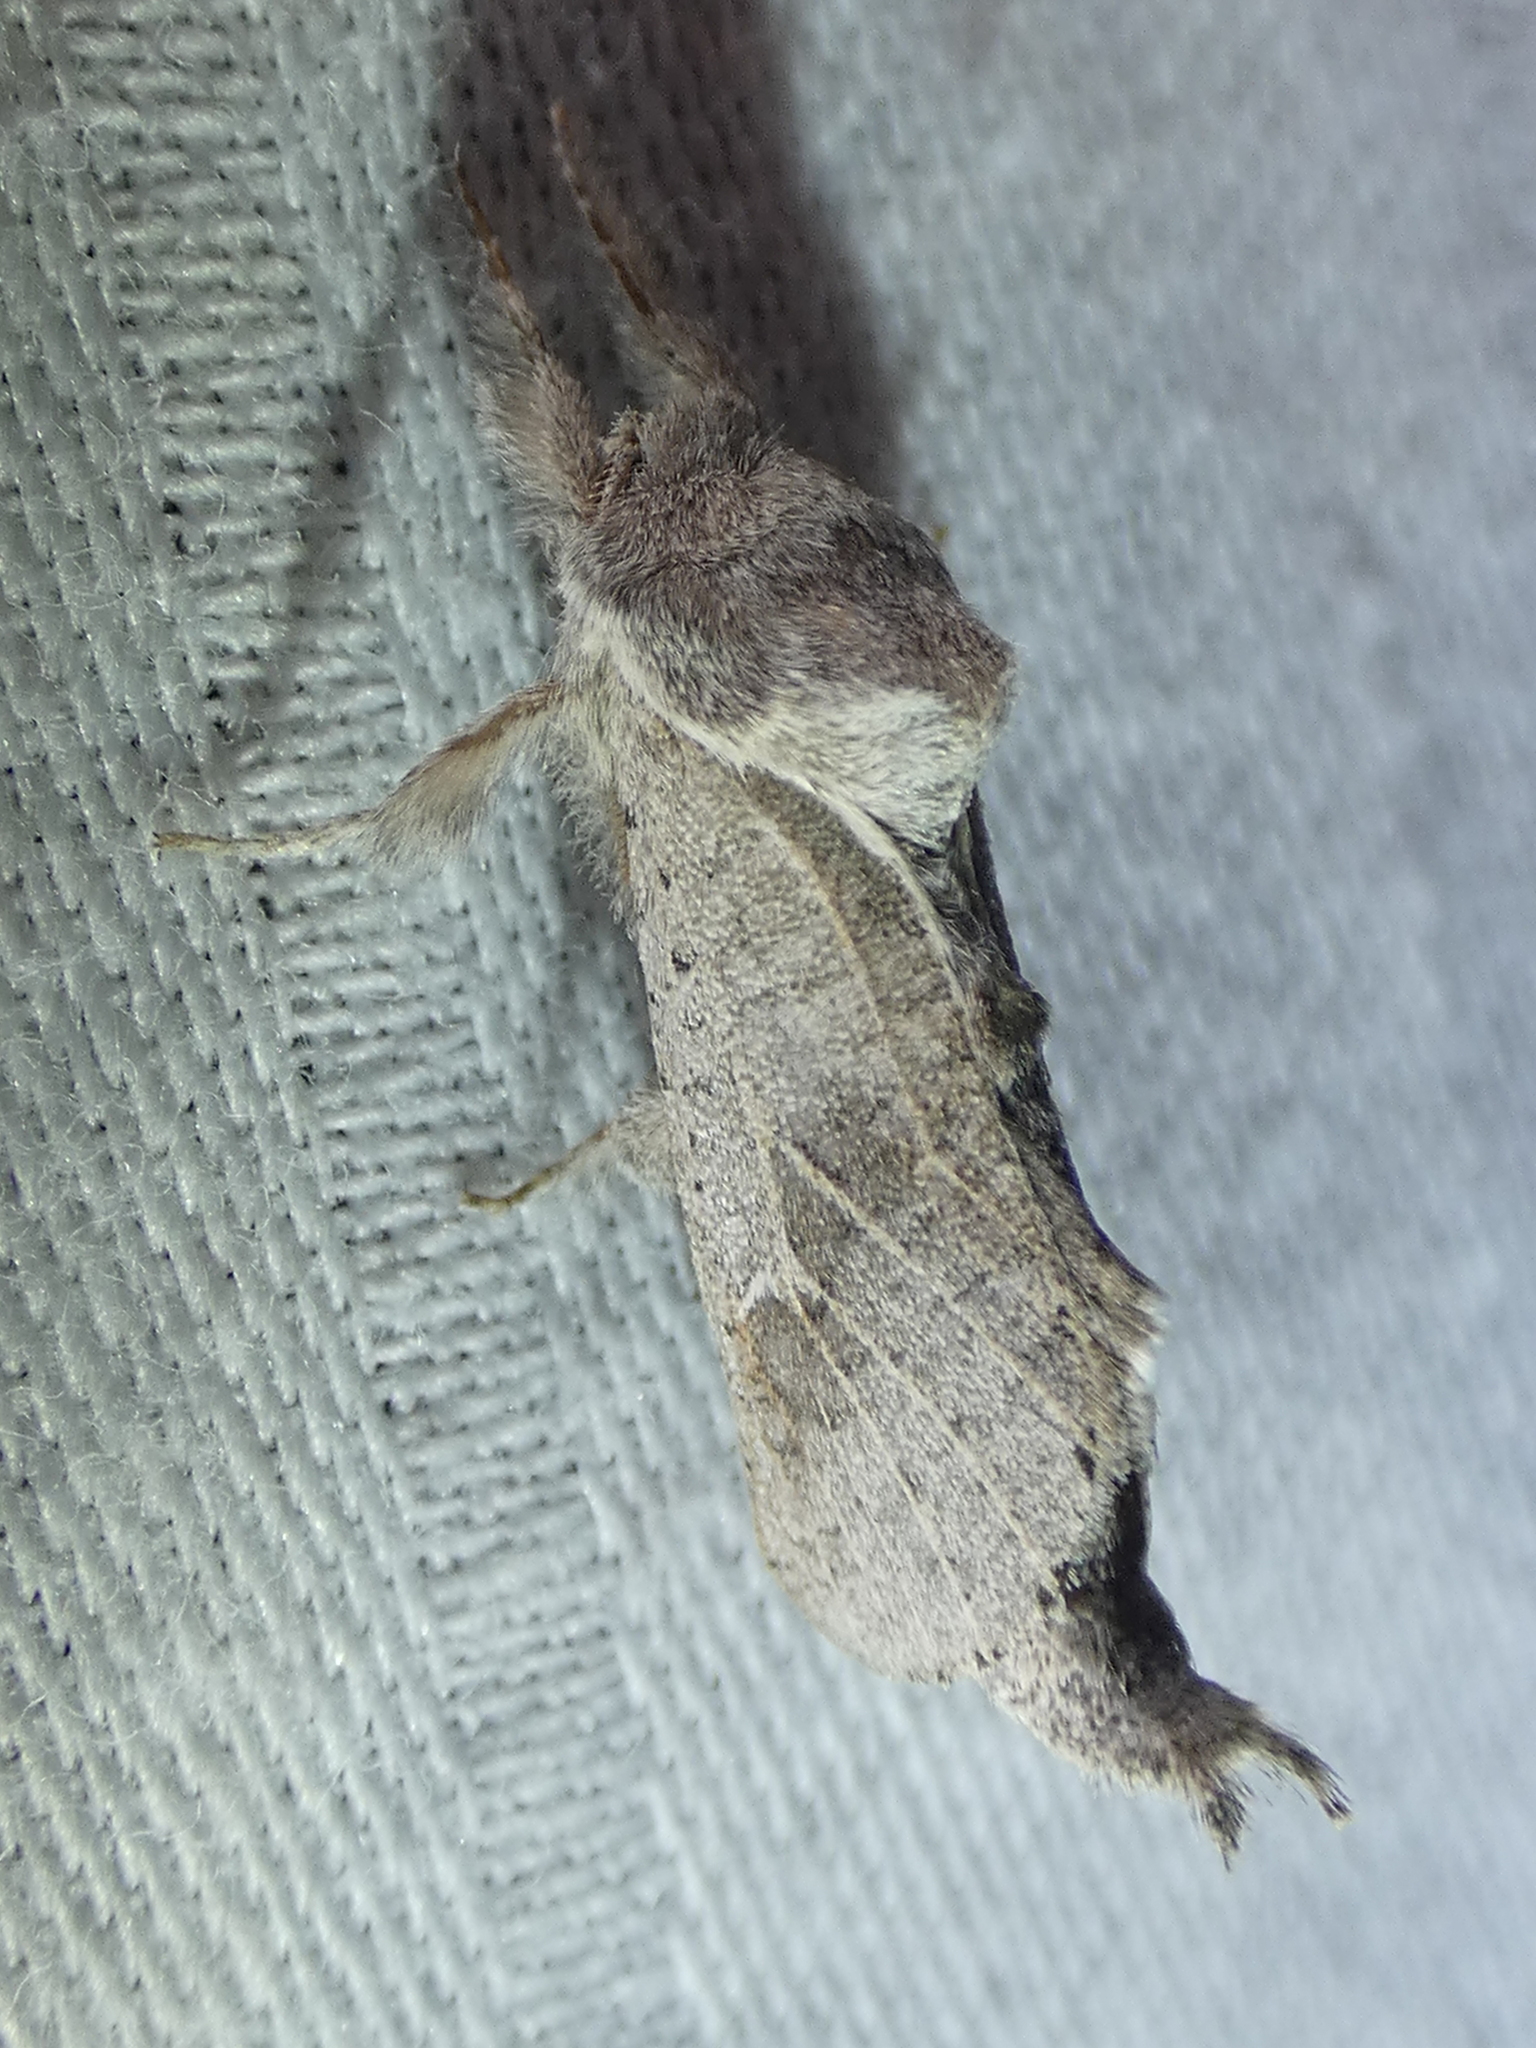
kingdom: Animalia
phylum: Arthropoda
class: Insecta
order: Lepidoptera
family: Cossidae
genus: Givira
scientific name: Givira anna
